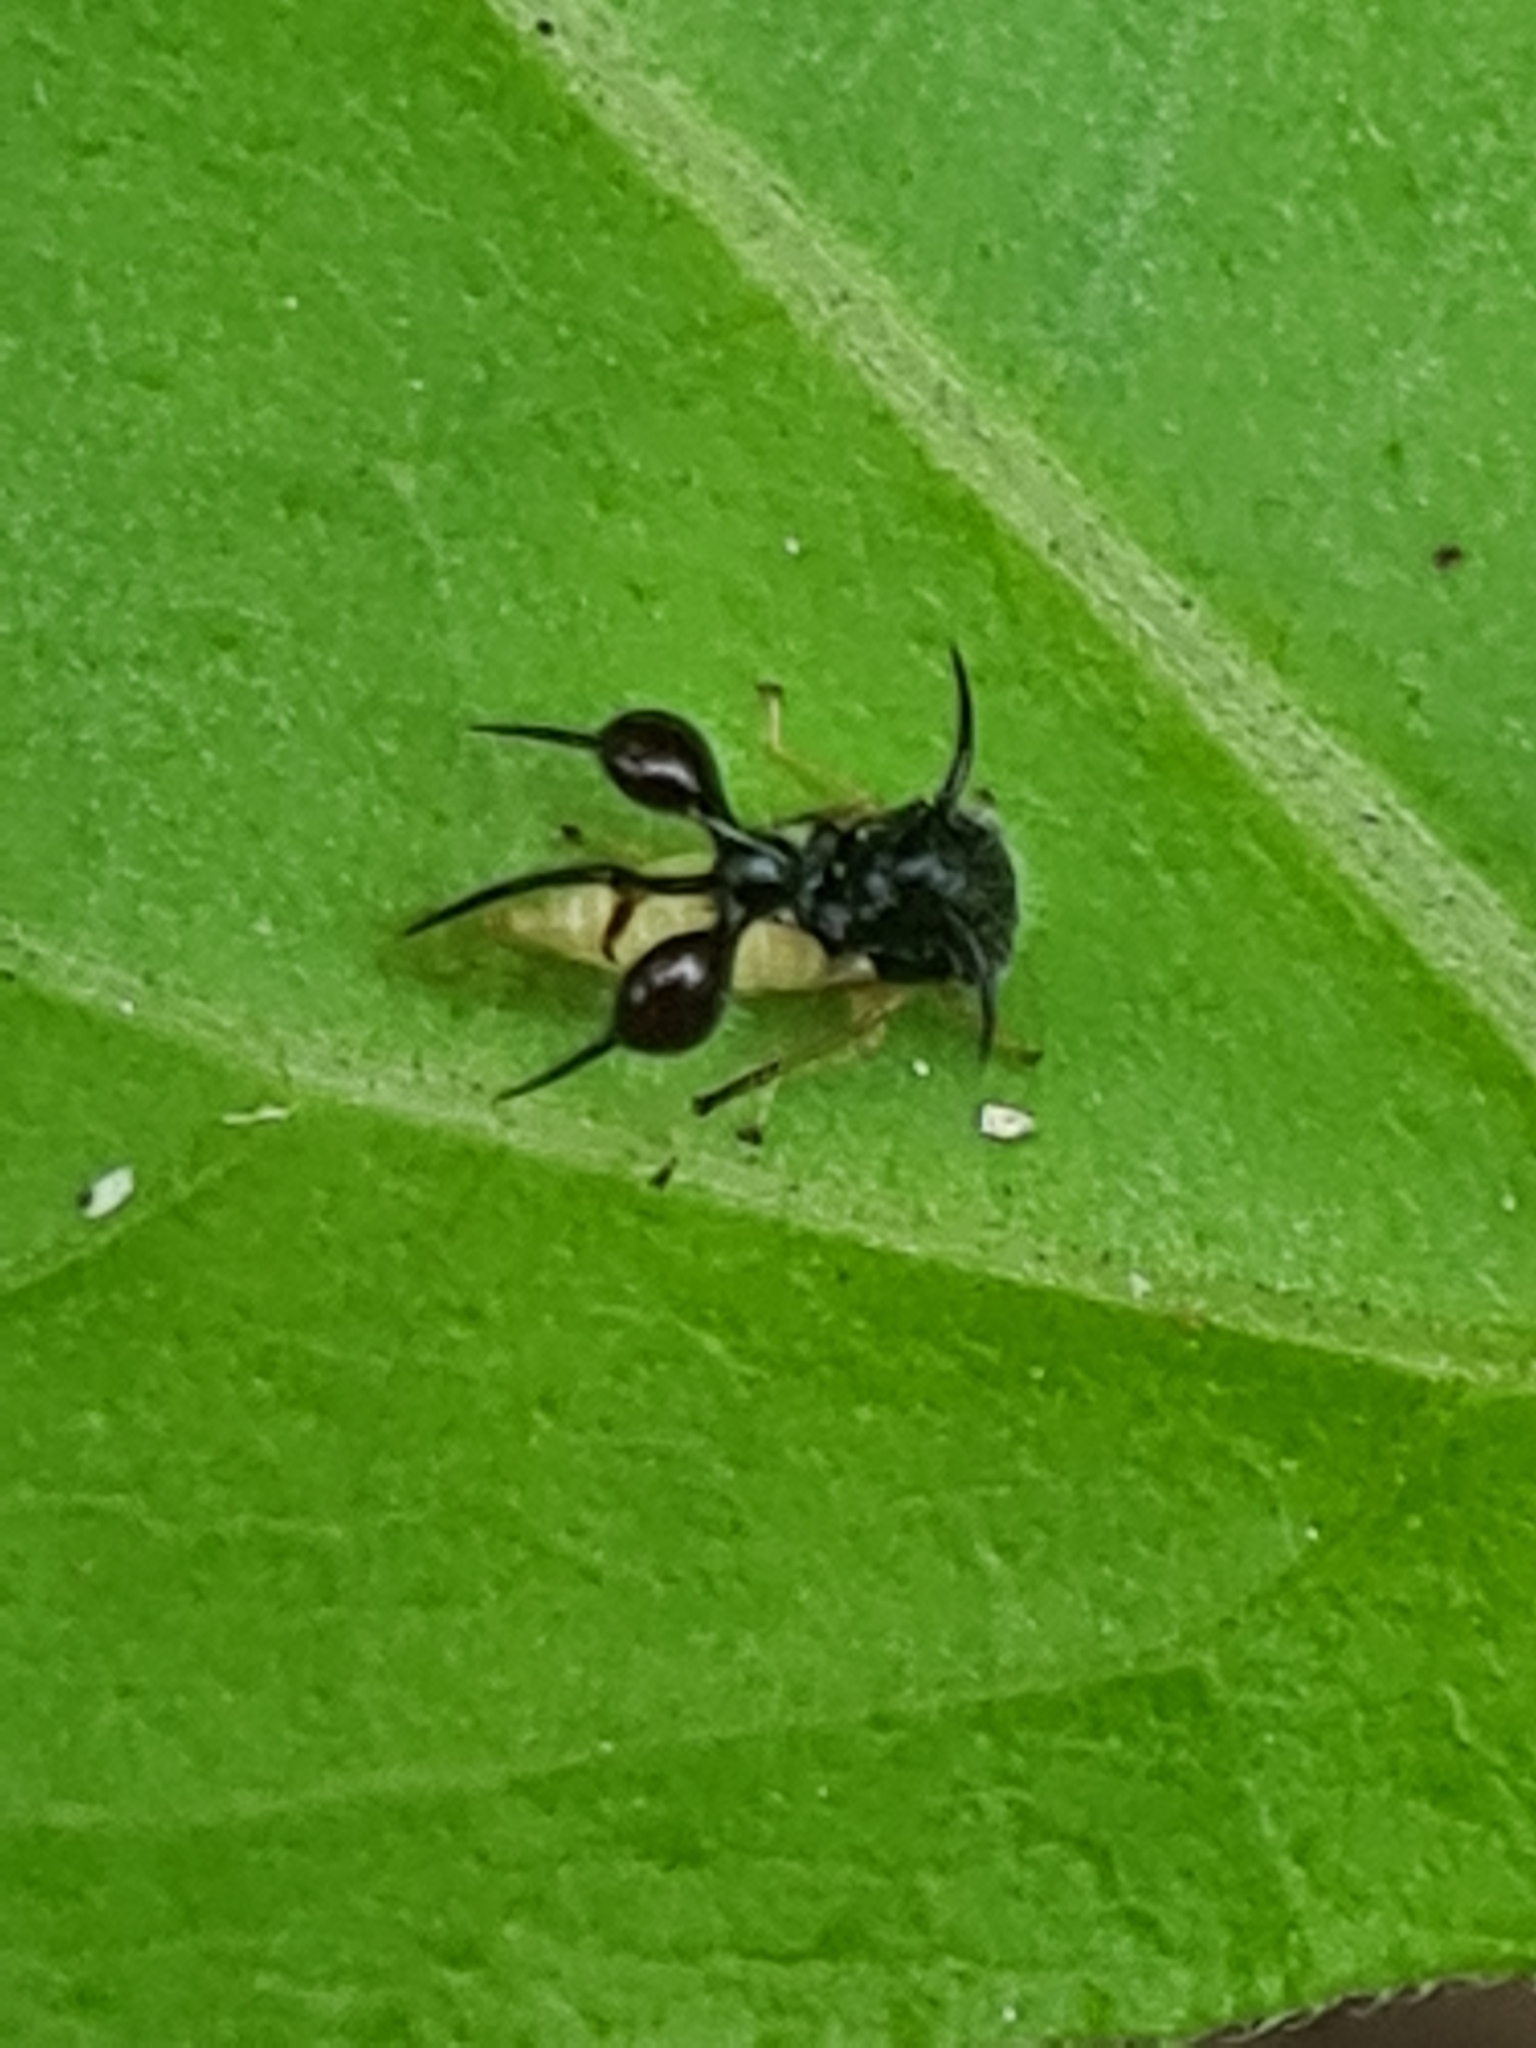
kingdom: Animalia
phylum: Arthropoda
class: Insecta
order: Hemiptera
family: Membracidae
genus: Cyphonia
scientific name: Cyphonia clavata
